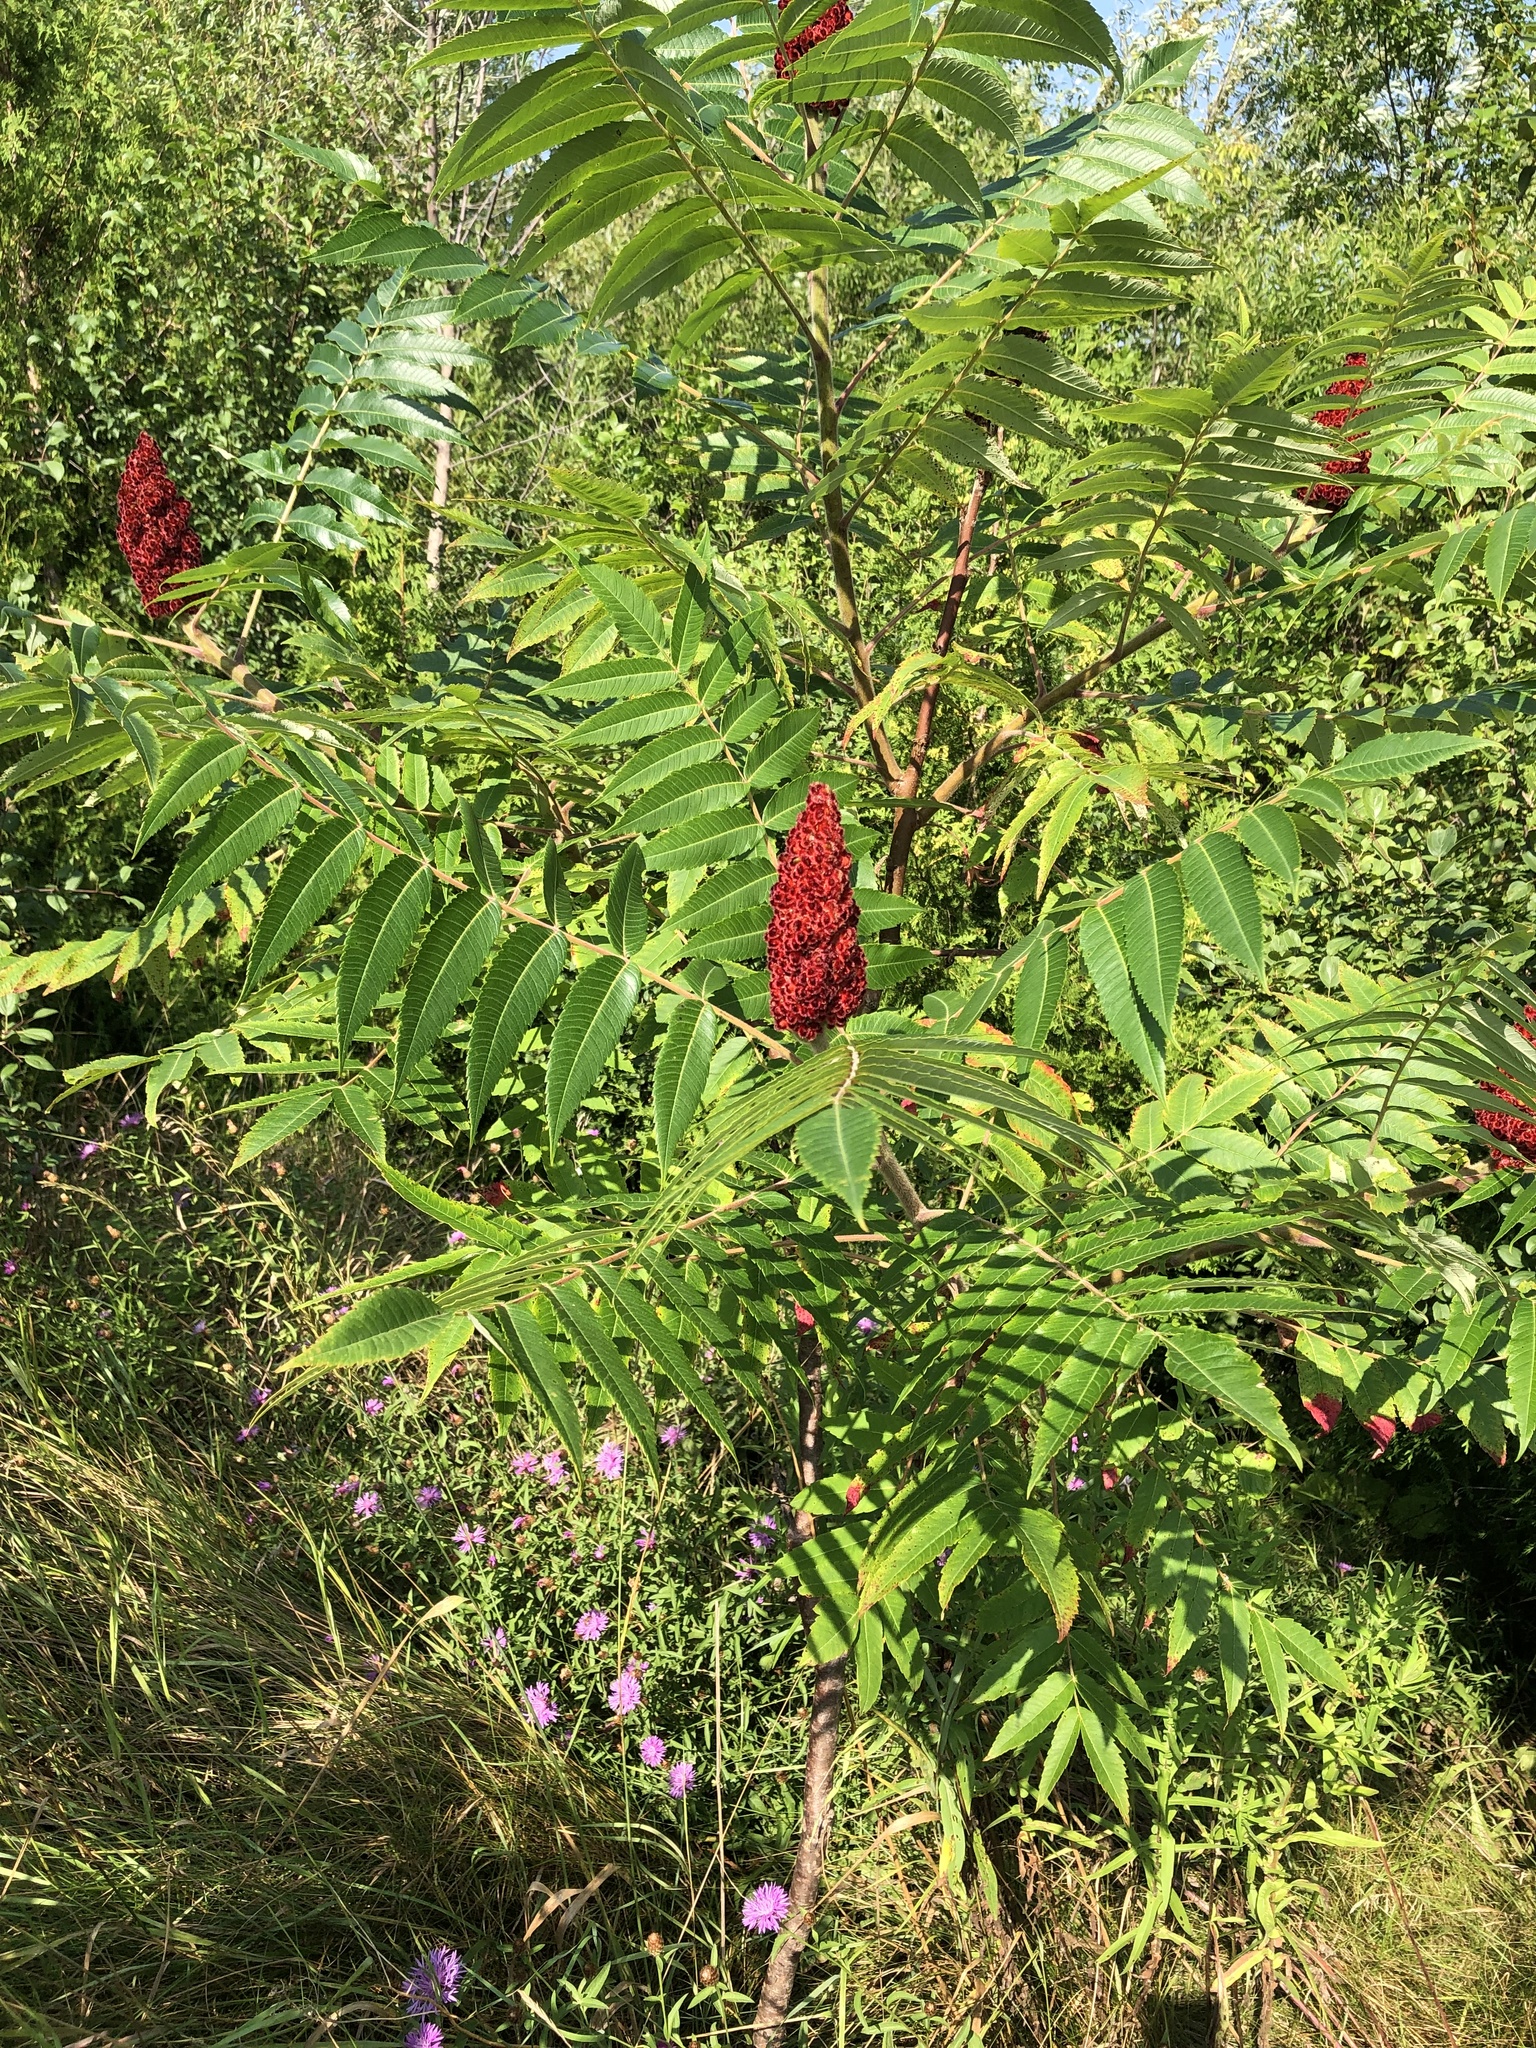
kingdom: Plantae
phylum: Tracheophyta
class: Magnoliopsida
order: Sapindales
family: Anacardiaceae
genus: Rhus
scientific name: Rhus typhina
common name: Staghorn sumac
